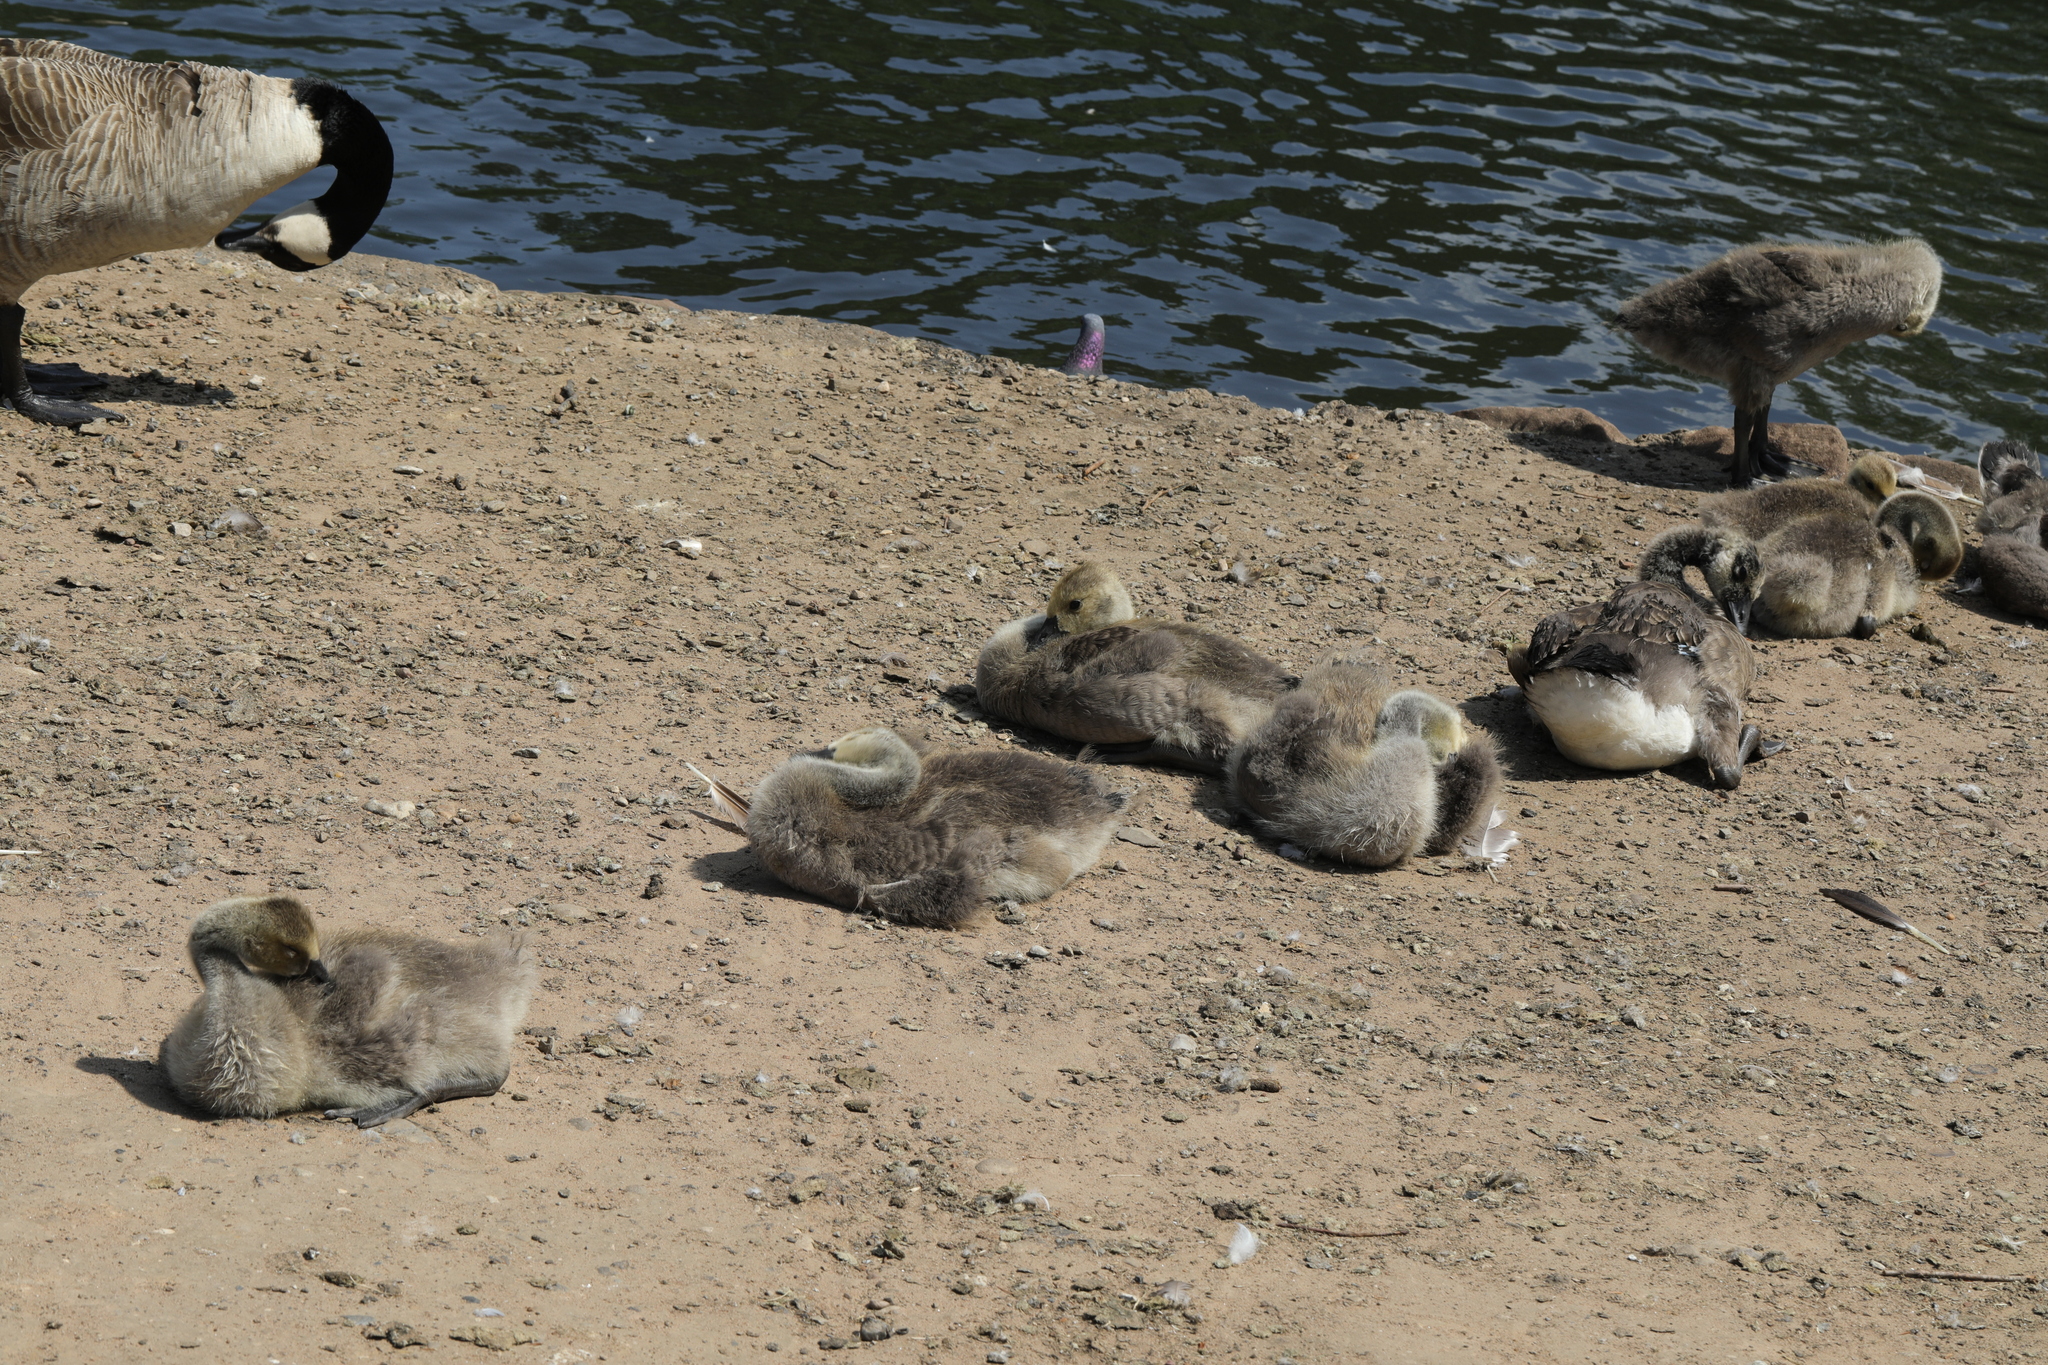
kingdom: Animalia
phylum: Chordata
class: Aves
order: Anseriformes
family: Anatidae
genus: Branta
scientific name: Branta canadensis
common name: Canada goose
